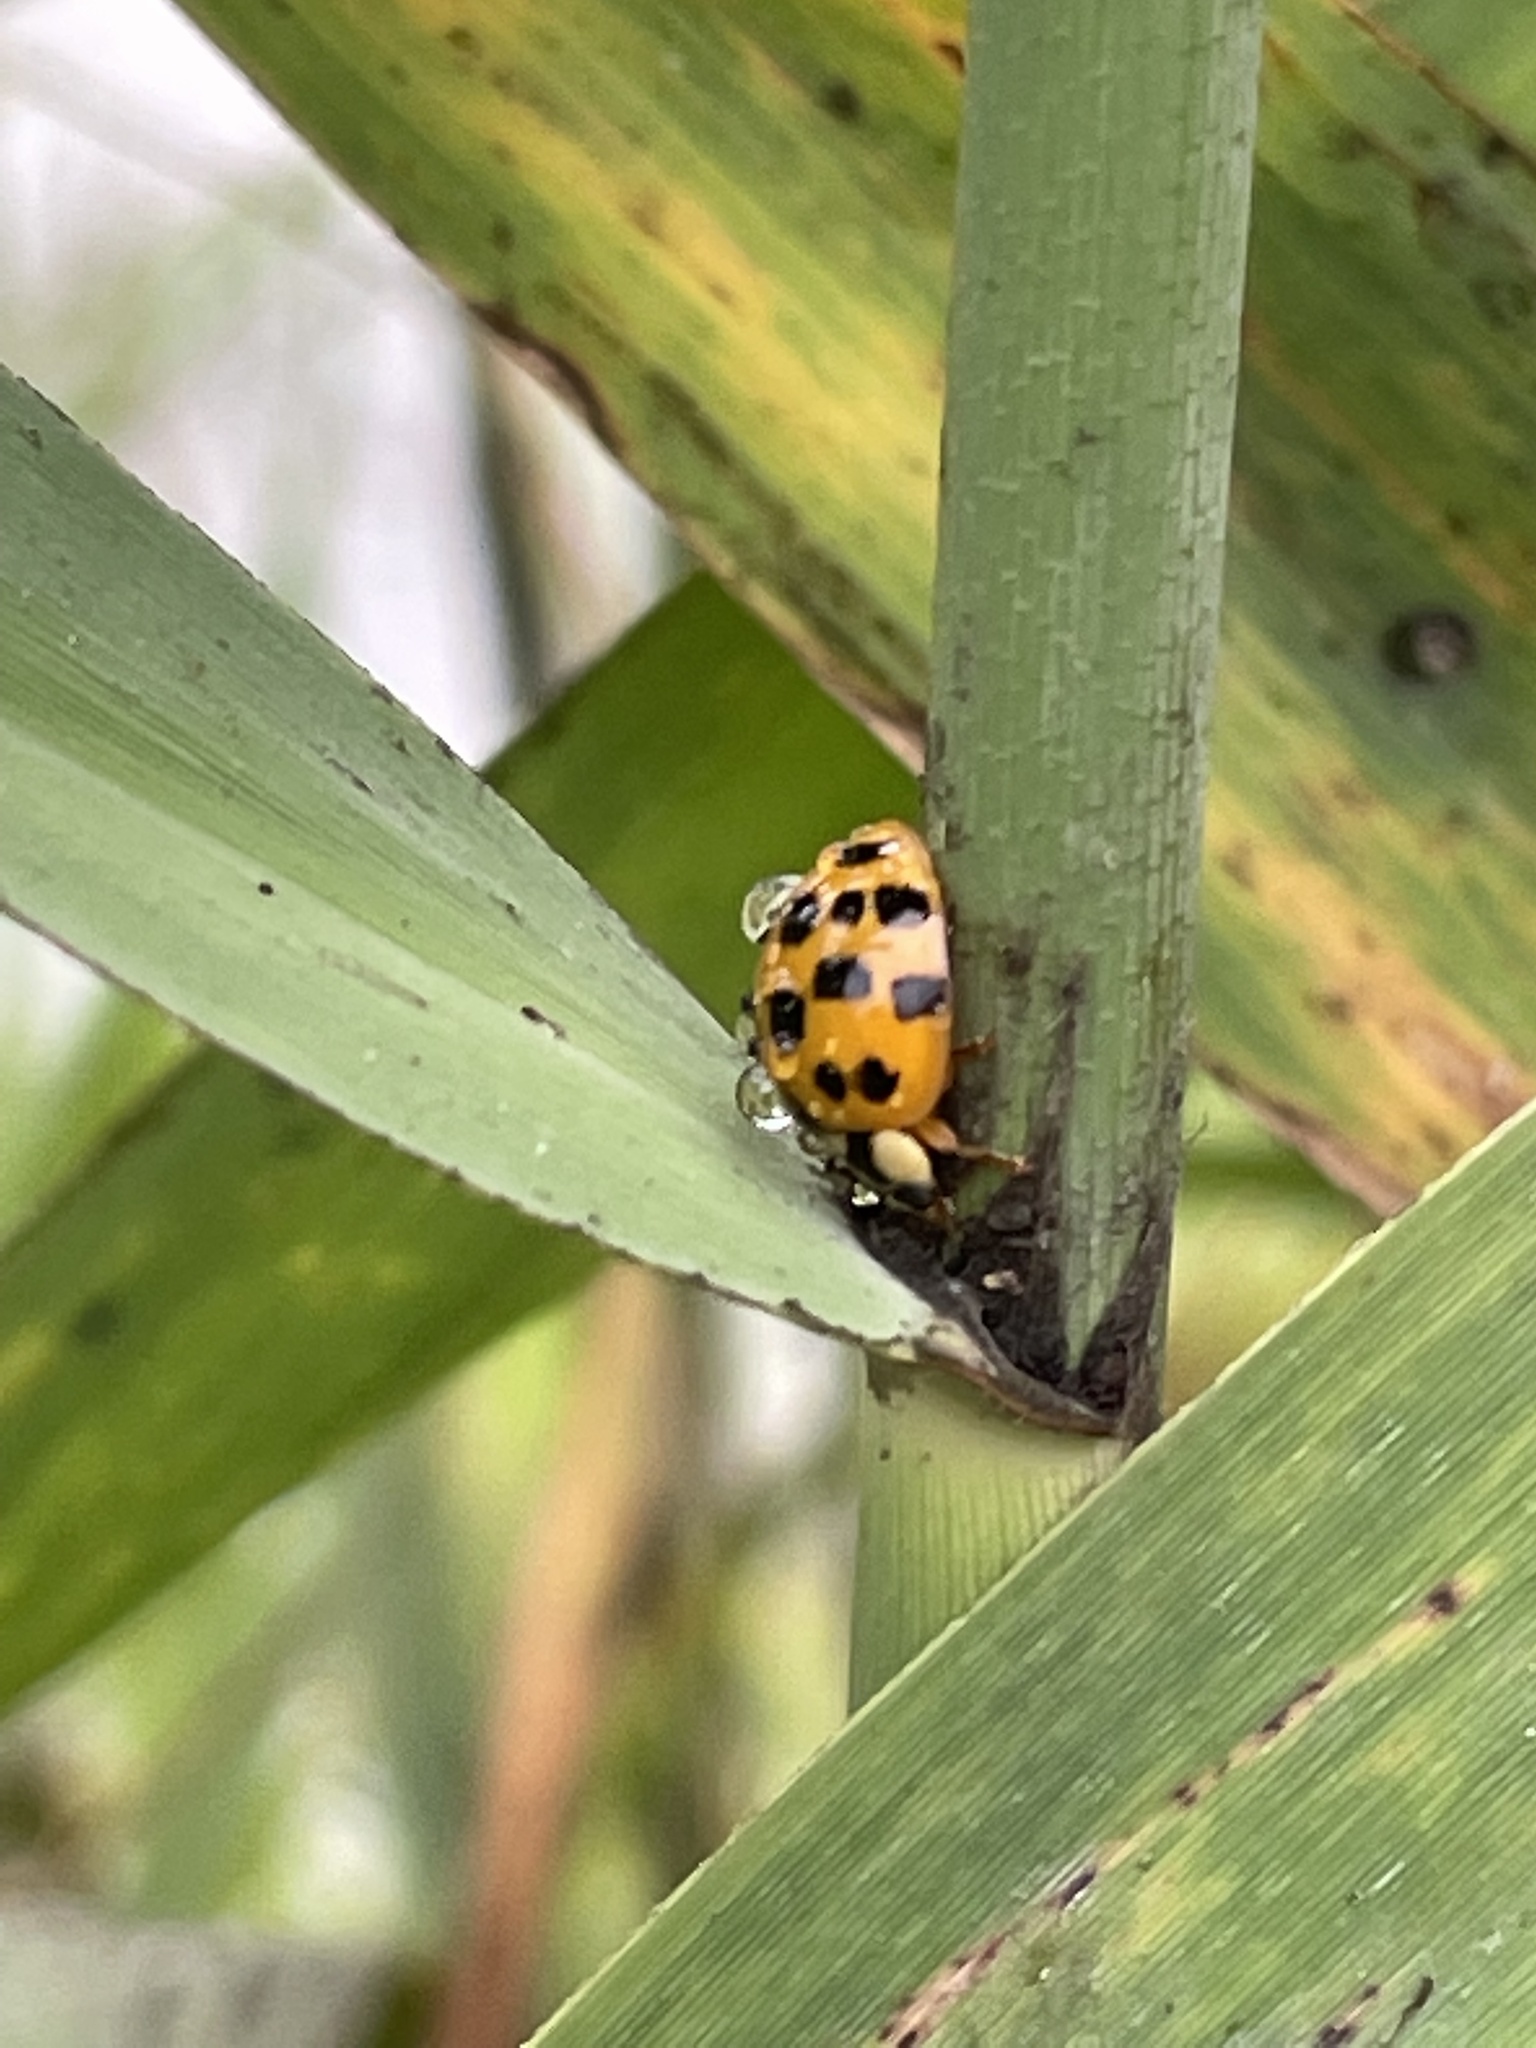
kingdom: Animalia
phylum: Arthropoda
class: Insecta
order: Coleoptera
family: Coccinellidae
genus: Harmonia
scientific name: Harmonia axyridis
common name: Harlequin ladybird
